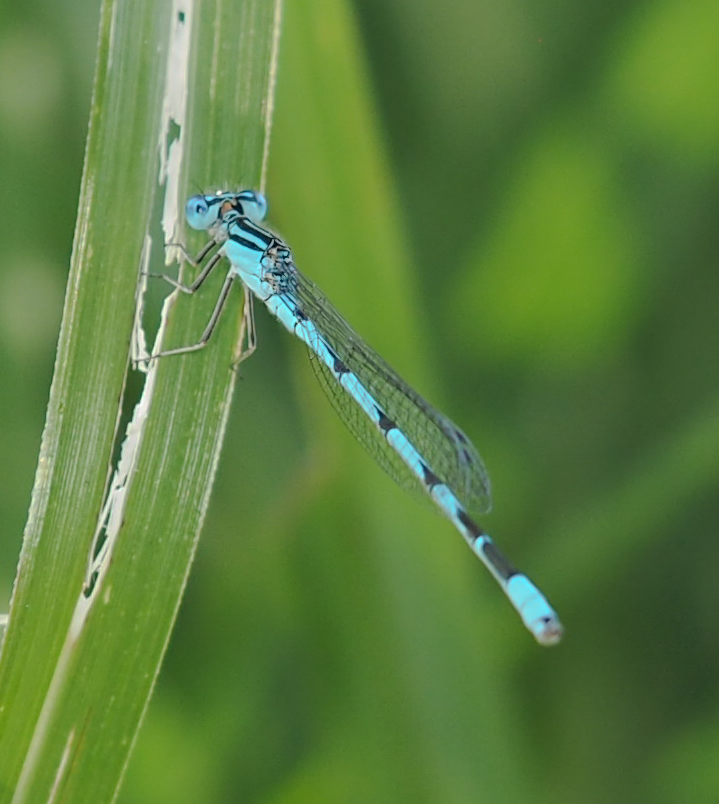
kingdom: Animalia
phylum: Arthropoda
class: Insecta
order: Odonata
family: Coenagrionidae
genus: Enallagma
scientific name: Enallagma durum
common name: Big bluet
